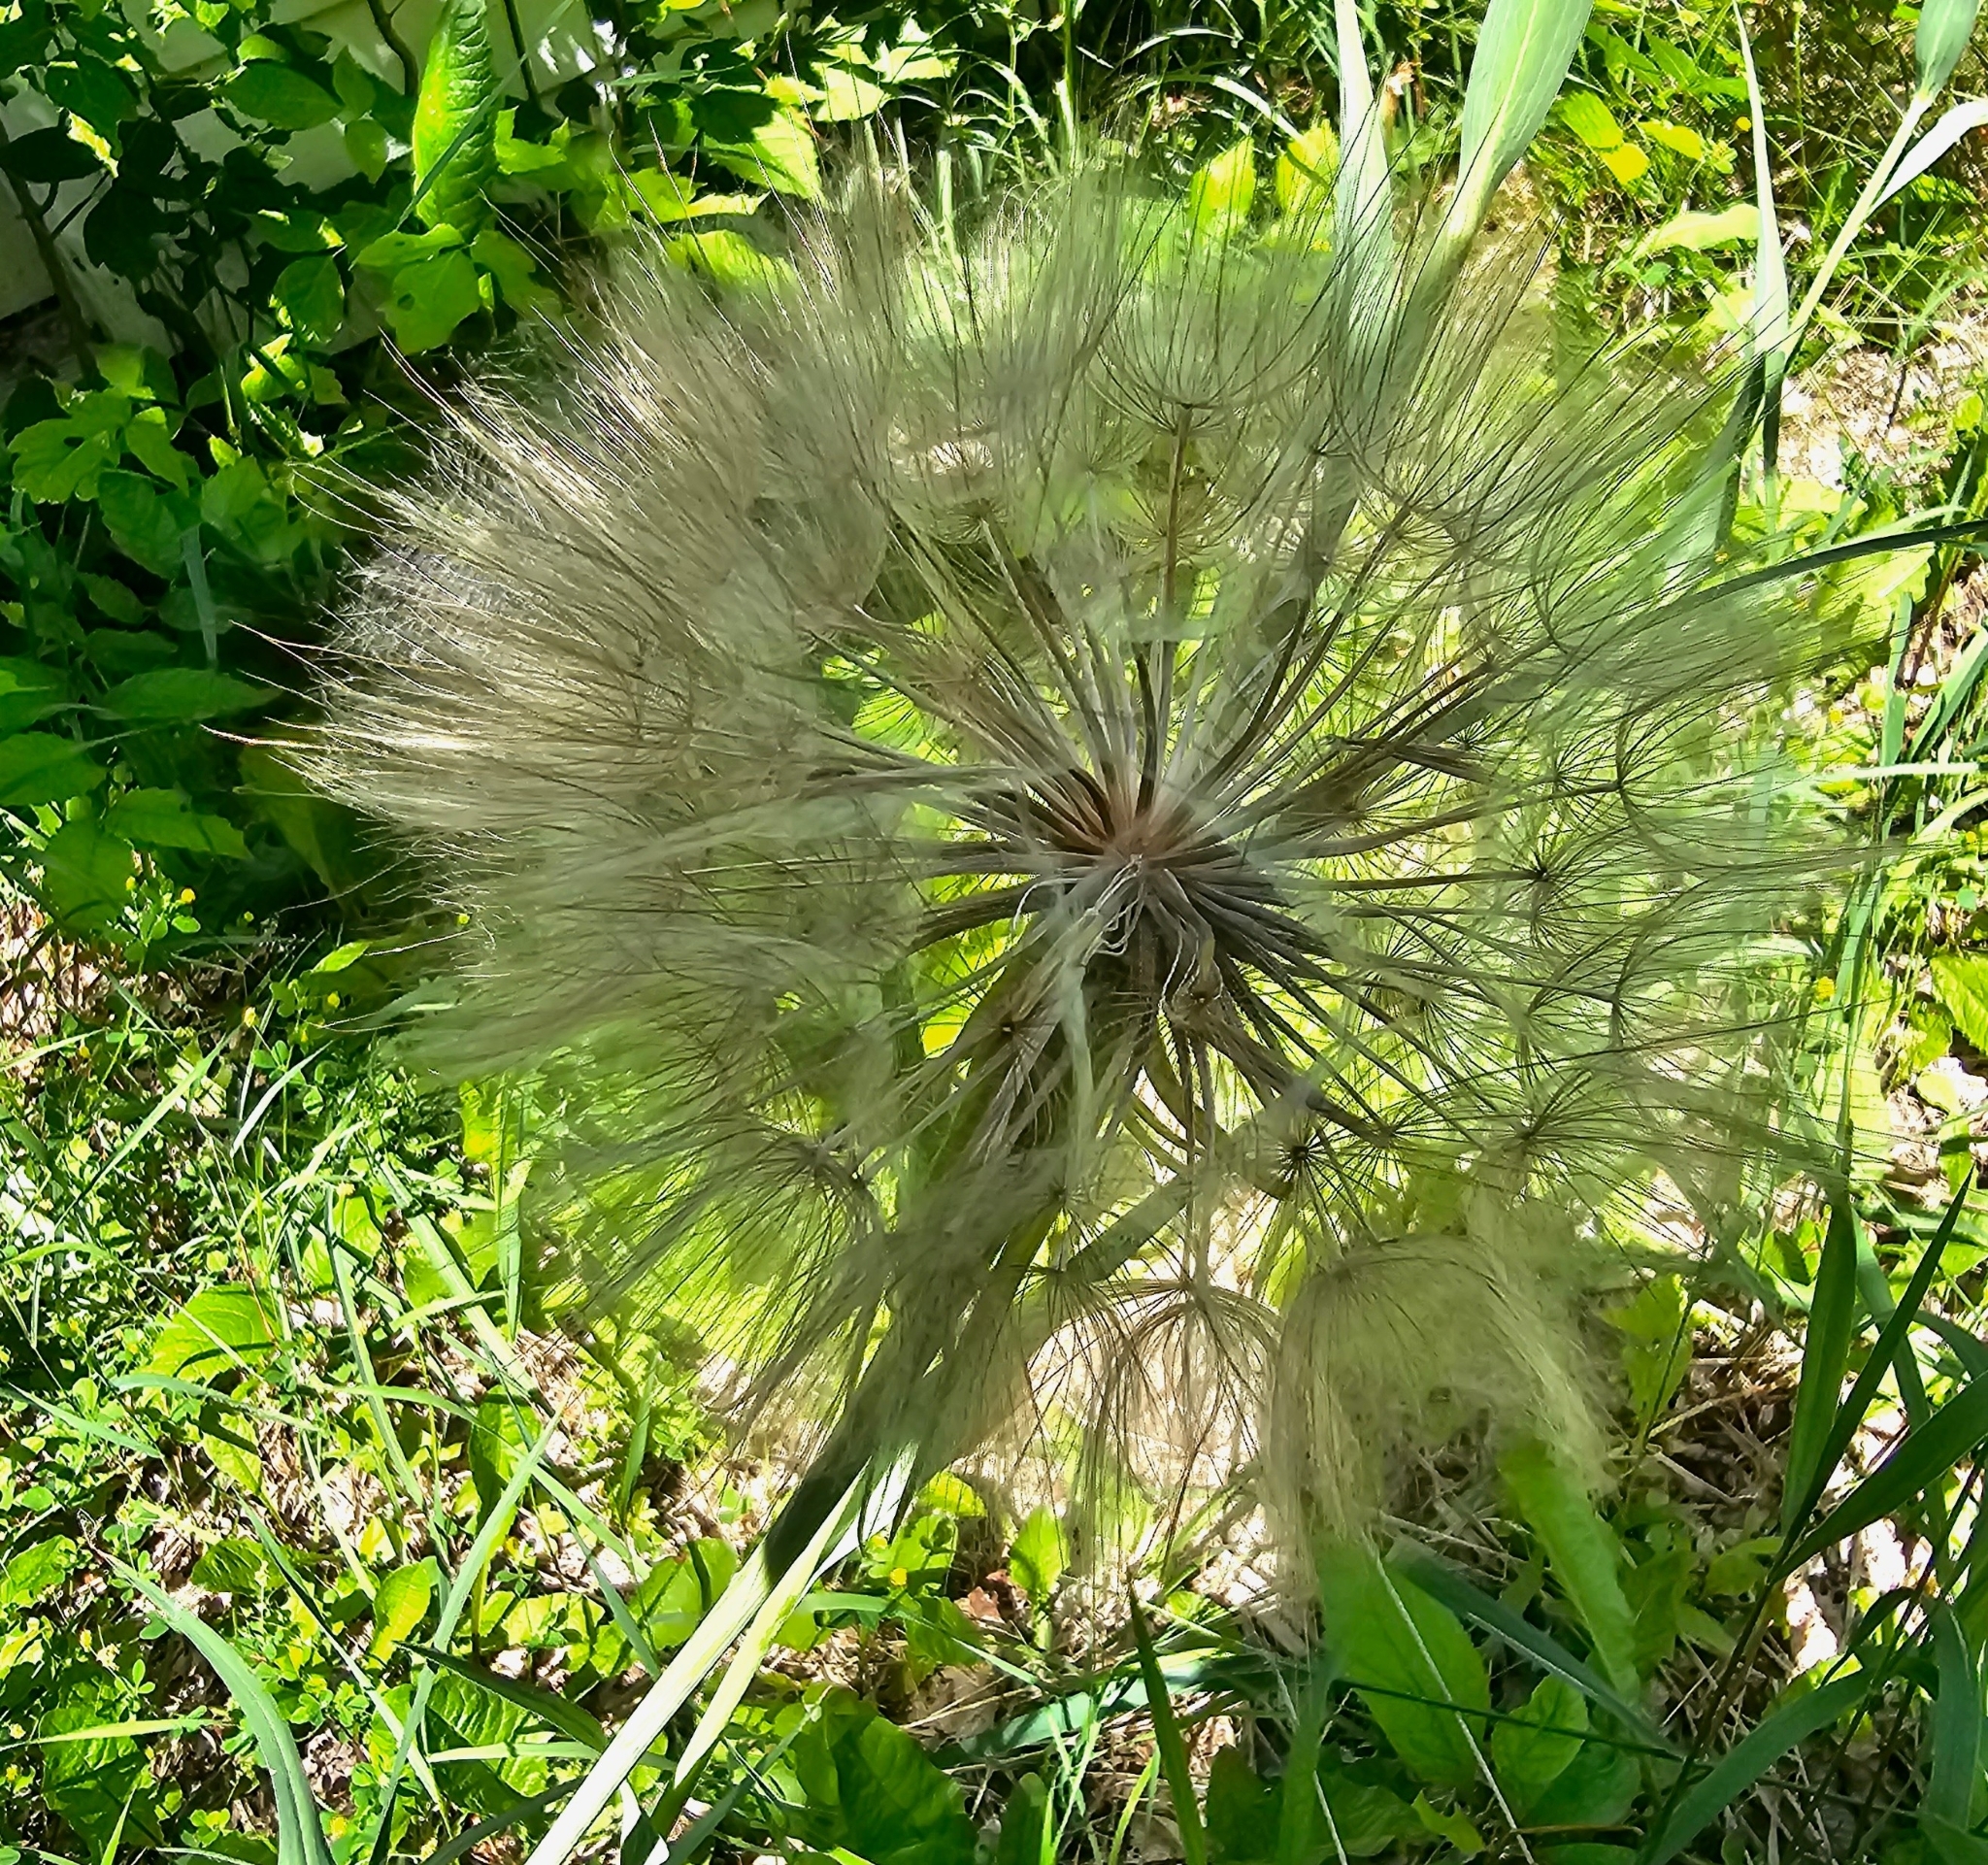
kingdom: Plantae
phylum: Tracheophyta
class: Magnoliopsida
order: Asterales
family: Asteraceae
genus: Tragopogon
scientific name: Tragopogon dubius
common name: Yellow salsify
